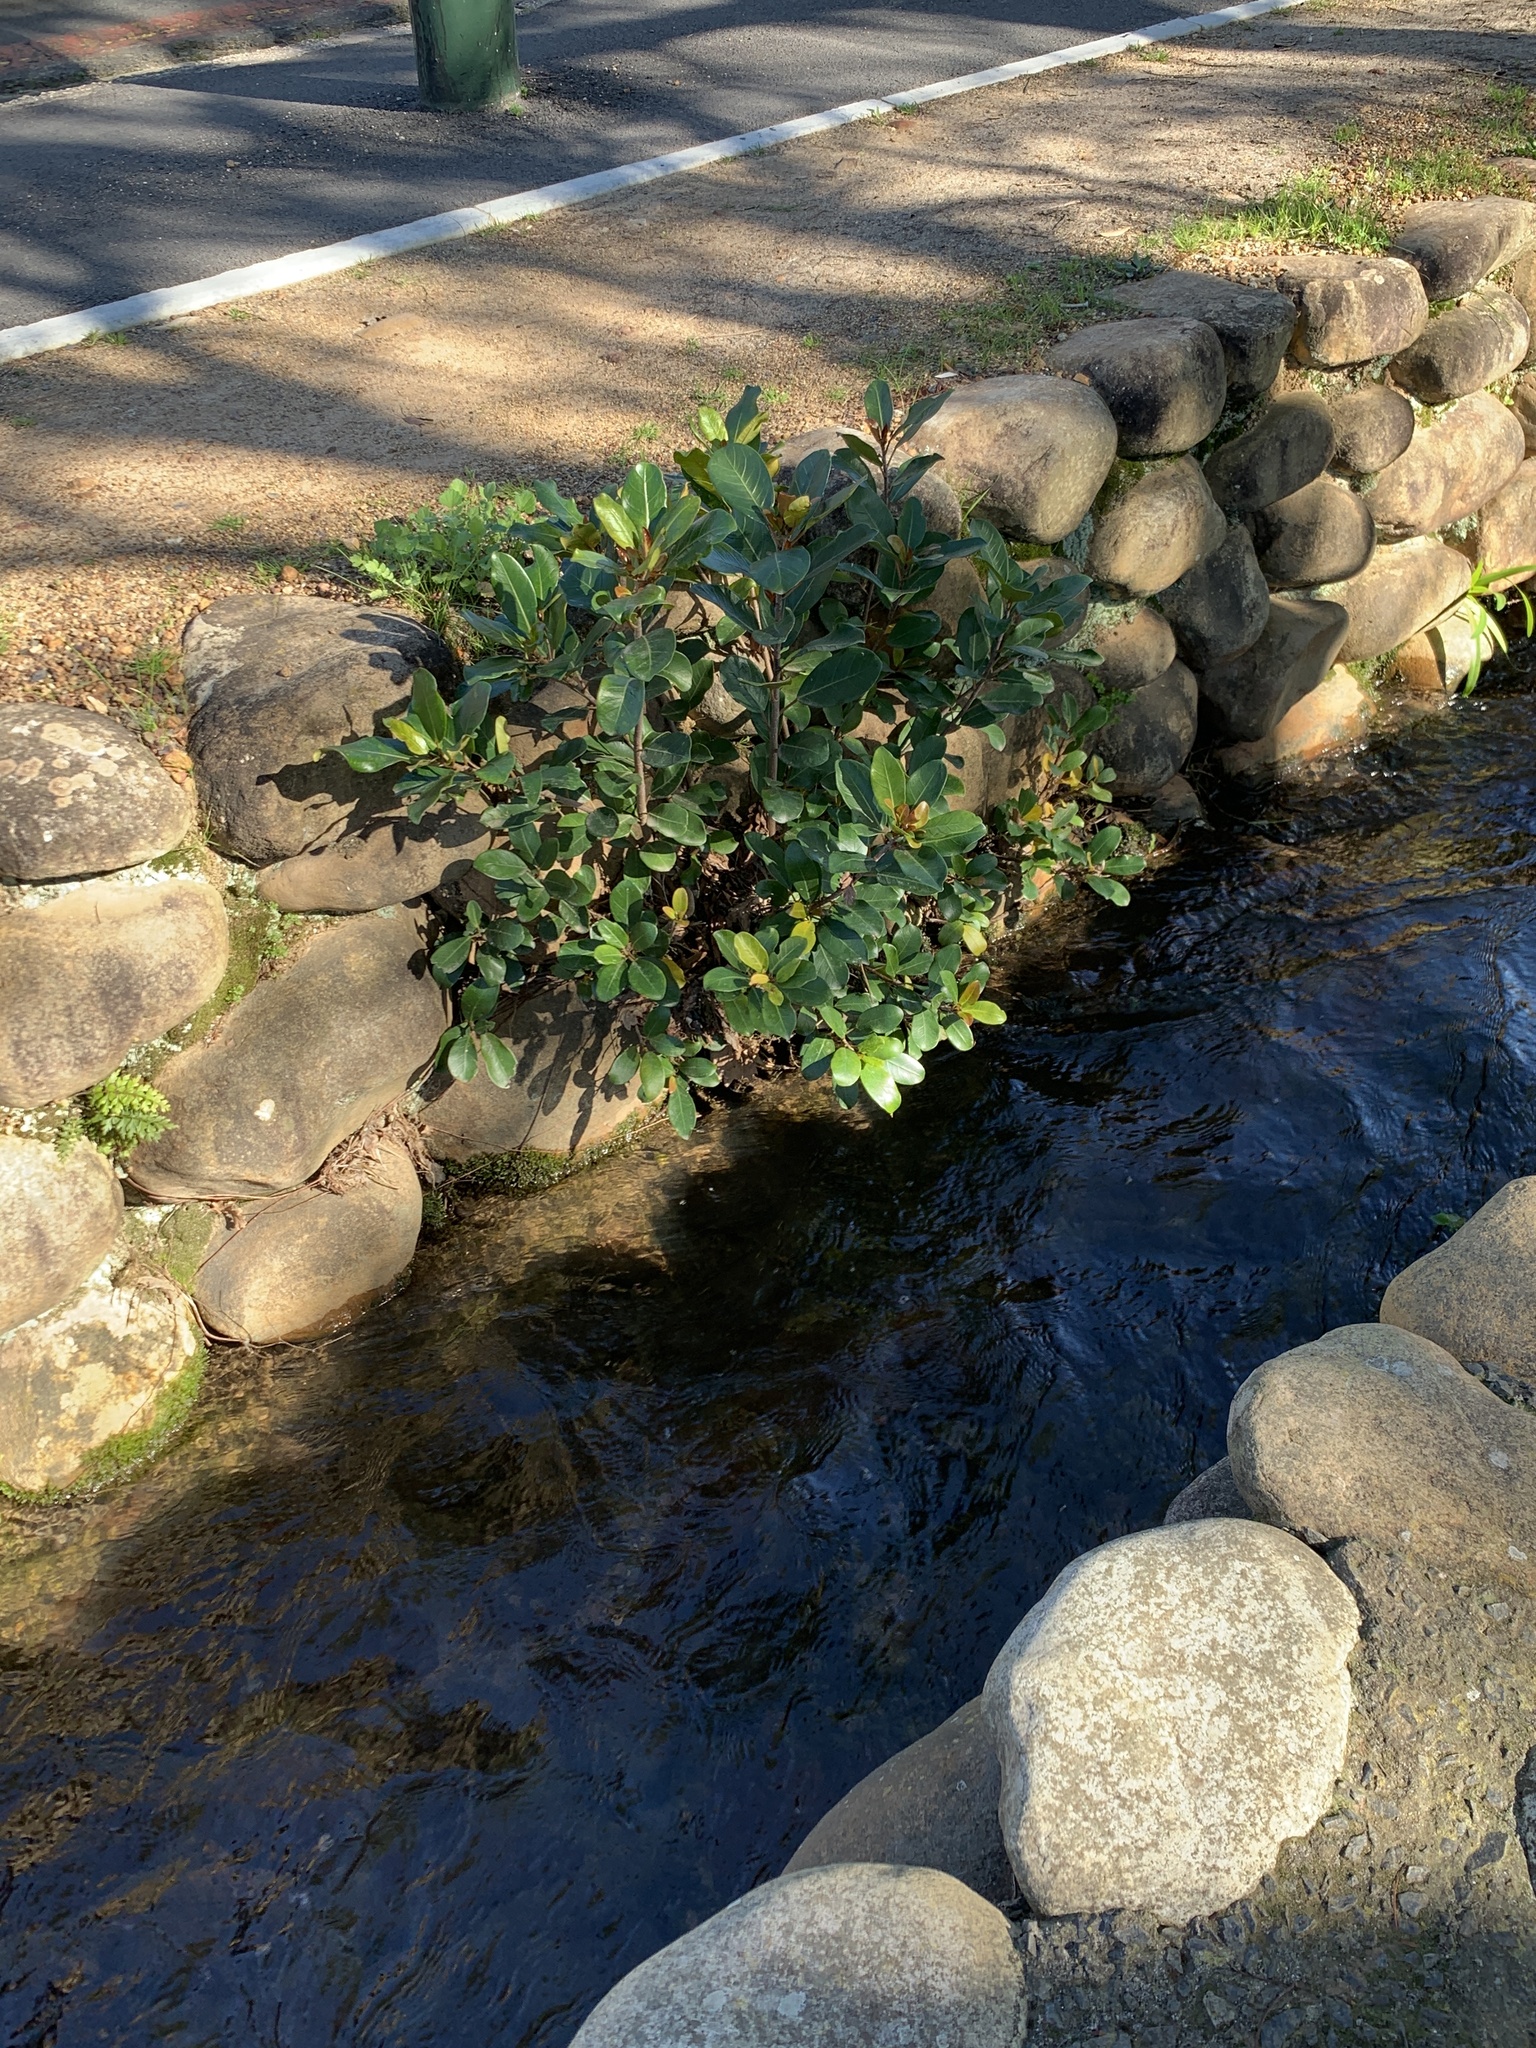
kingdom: Plantae
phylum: Tracheophyta
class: Magnoliopsida
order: Rosales
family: Moraceae
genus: Ficus
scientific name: Ficus thonningii
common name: Fig
